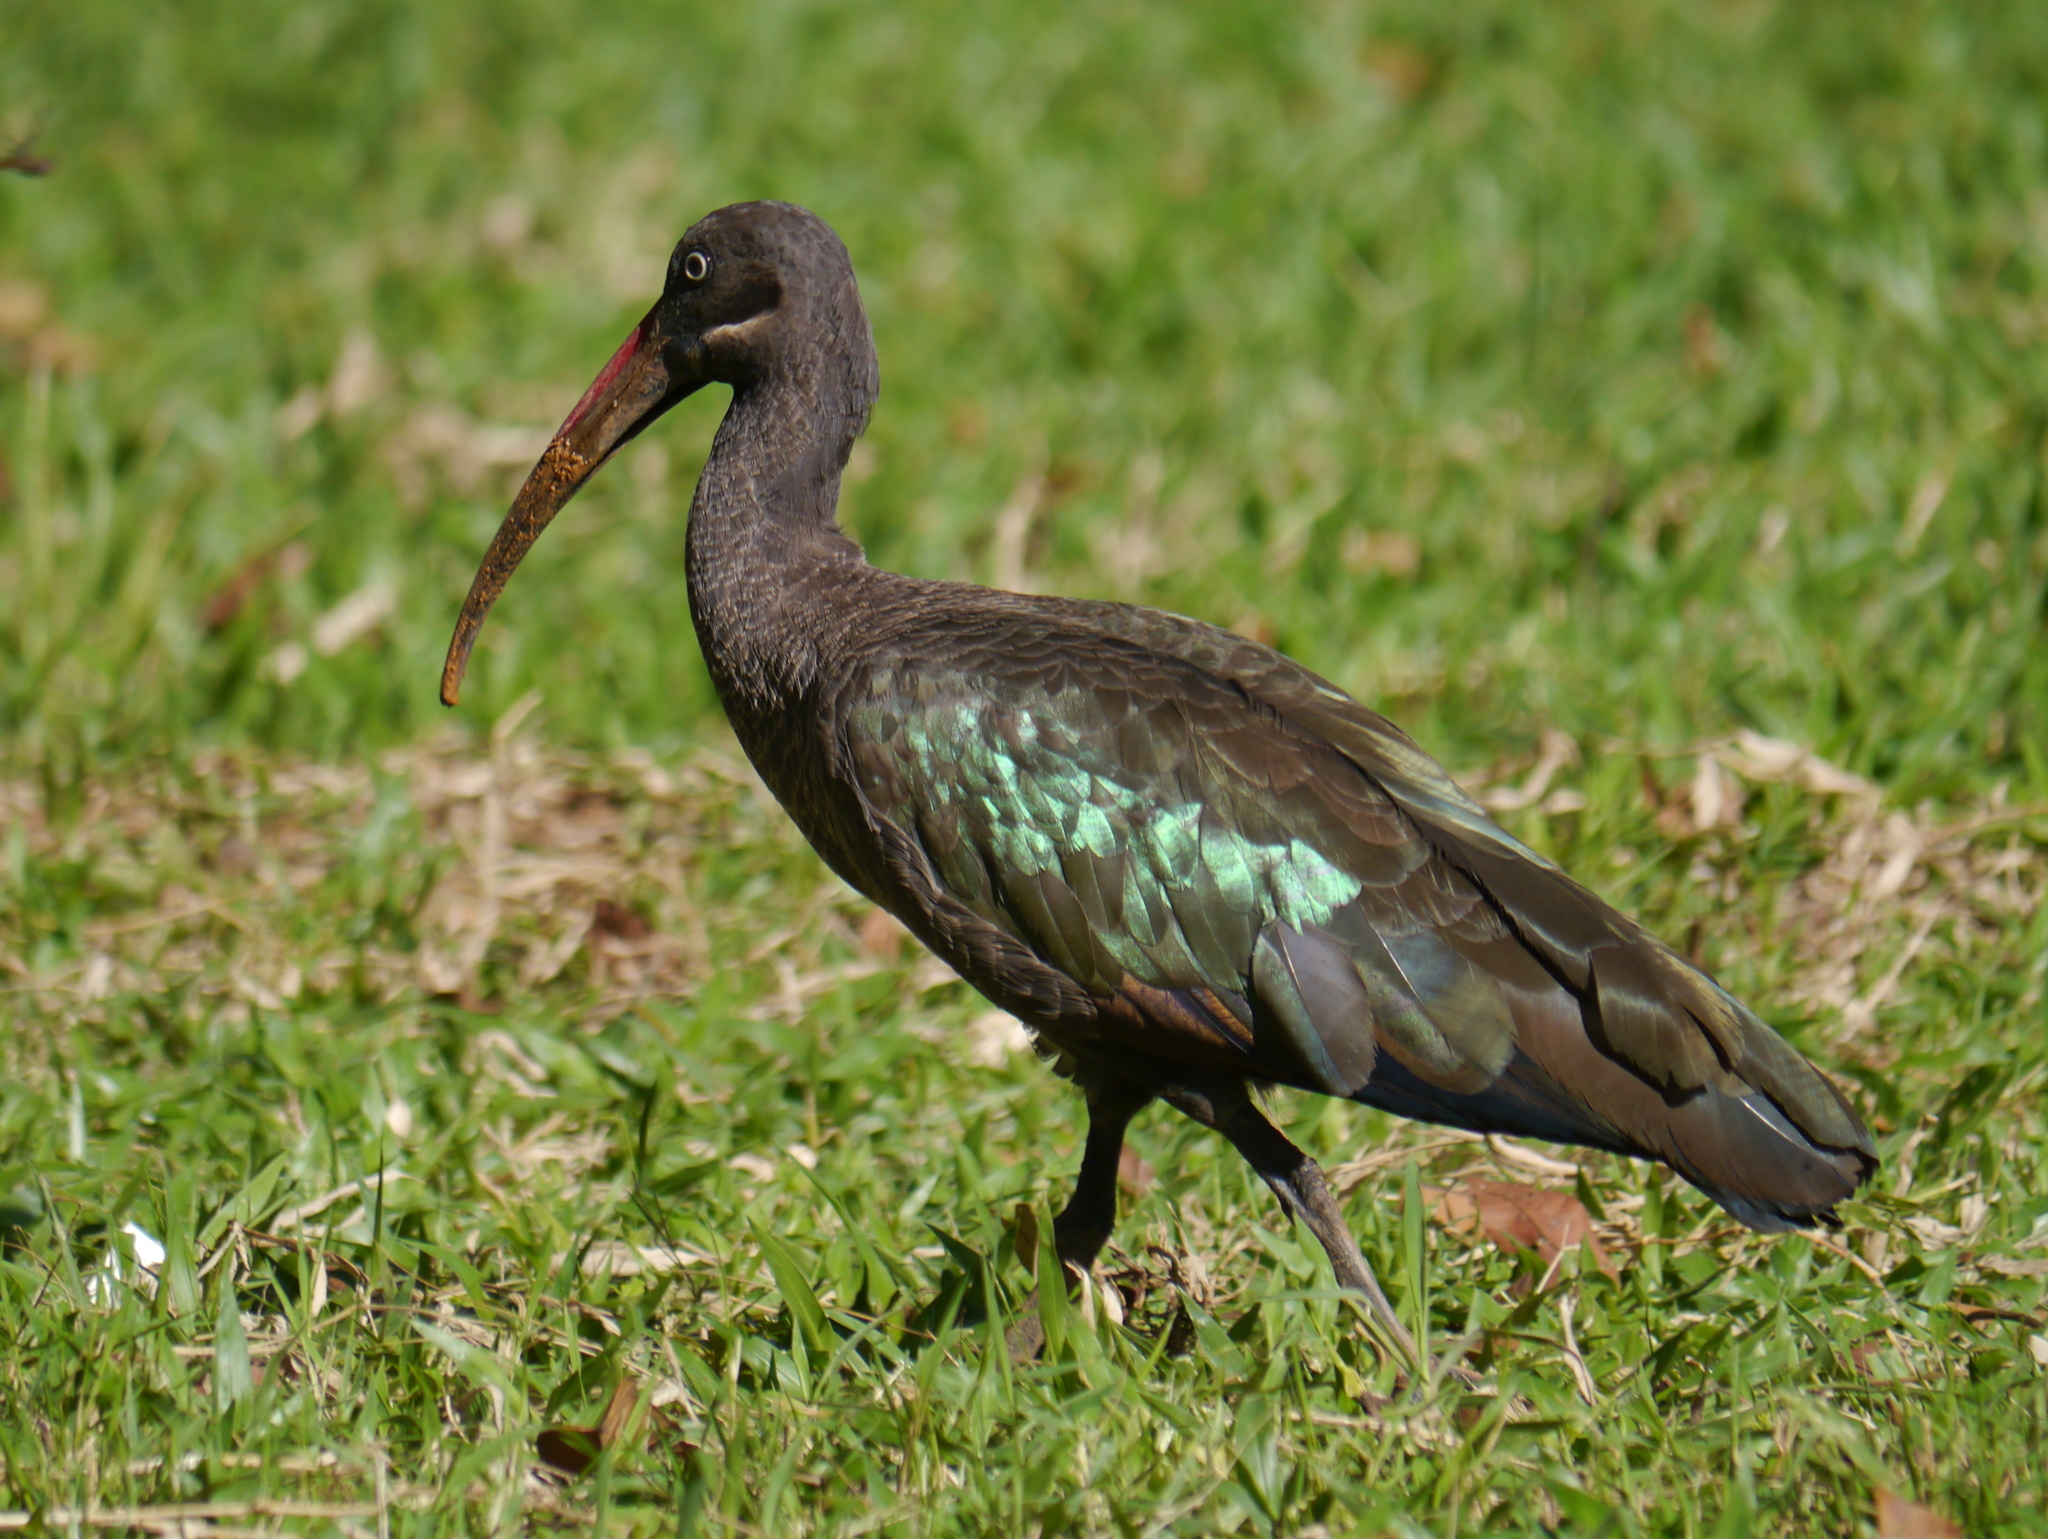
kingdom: Animalia
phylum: Chordata
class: Aves
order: Pelecaniformes
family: Threskiornithidae
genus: Bostrychia
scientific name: Bostrychia hagedash
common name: Hadada ibis
